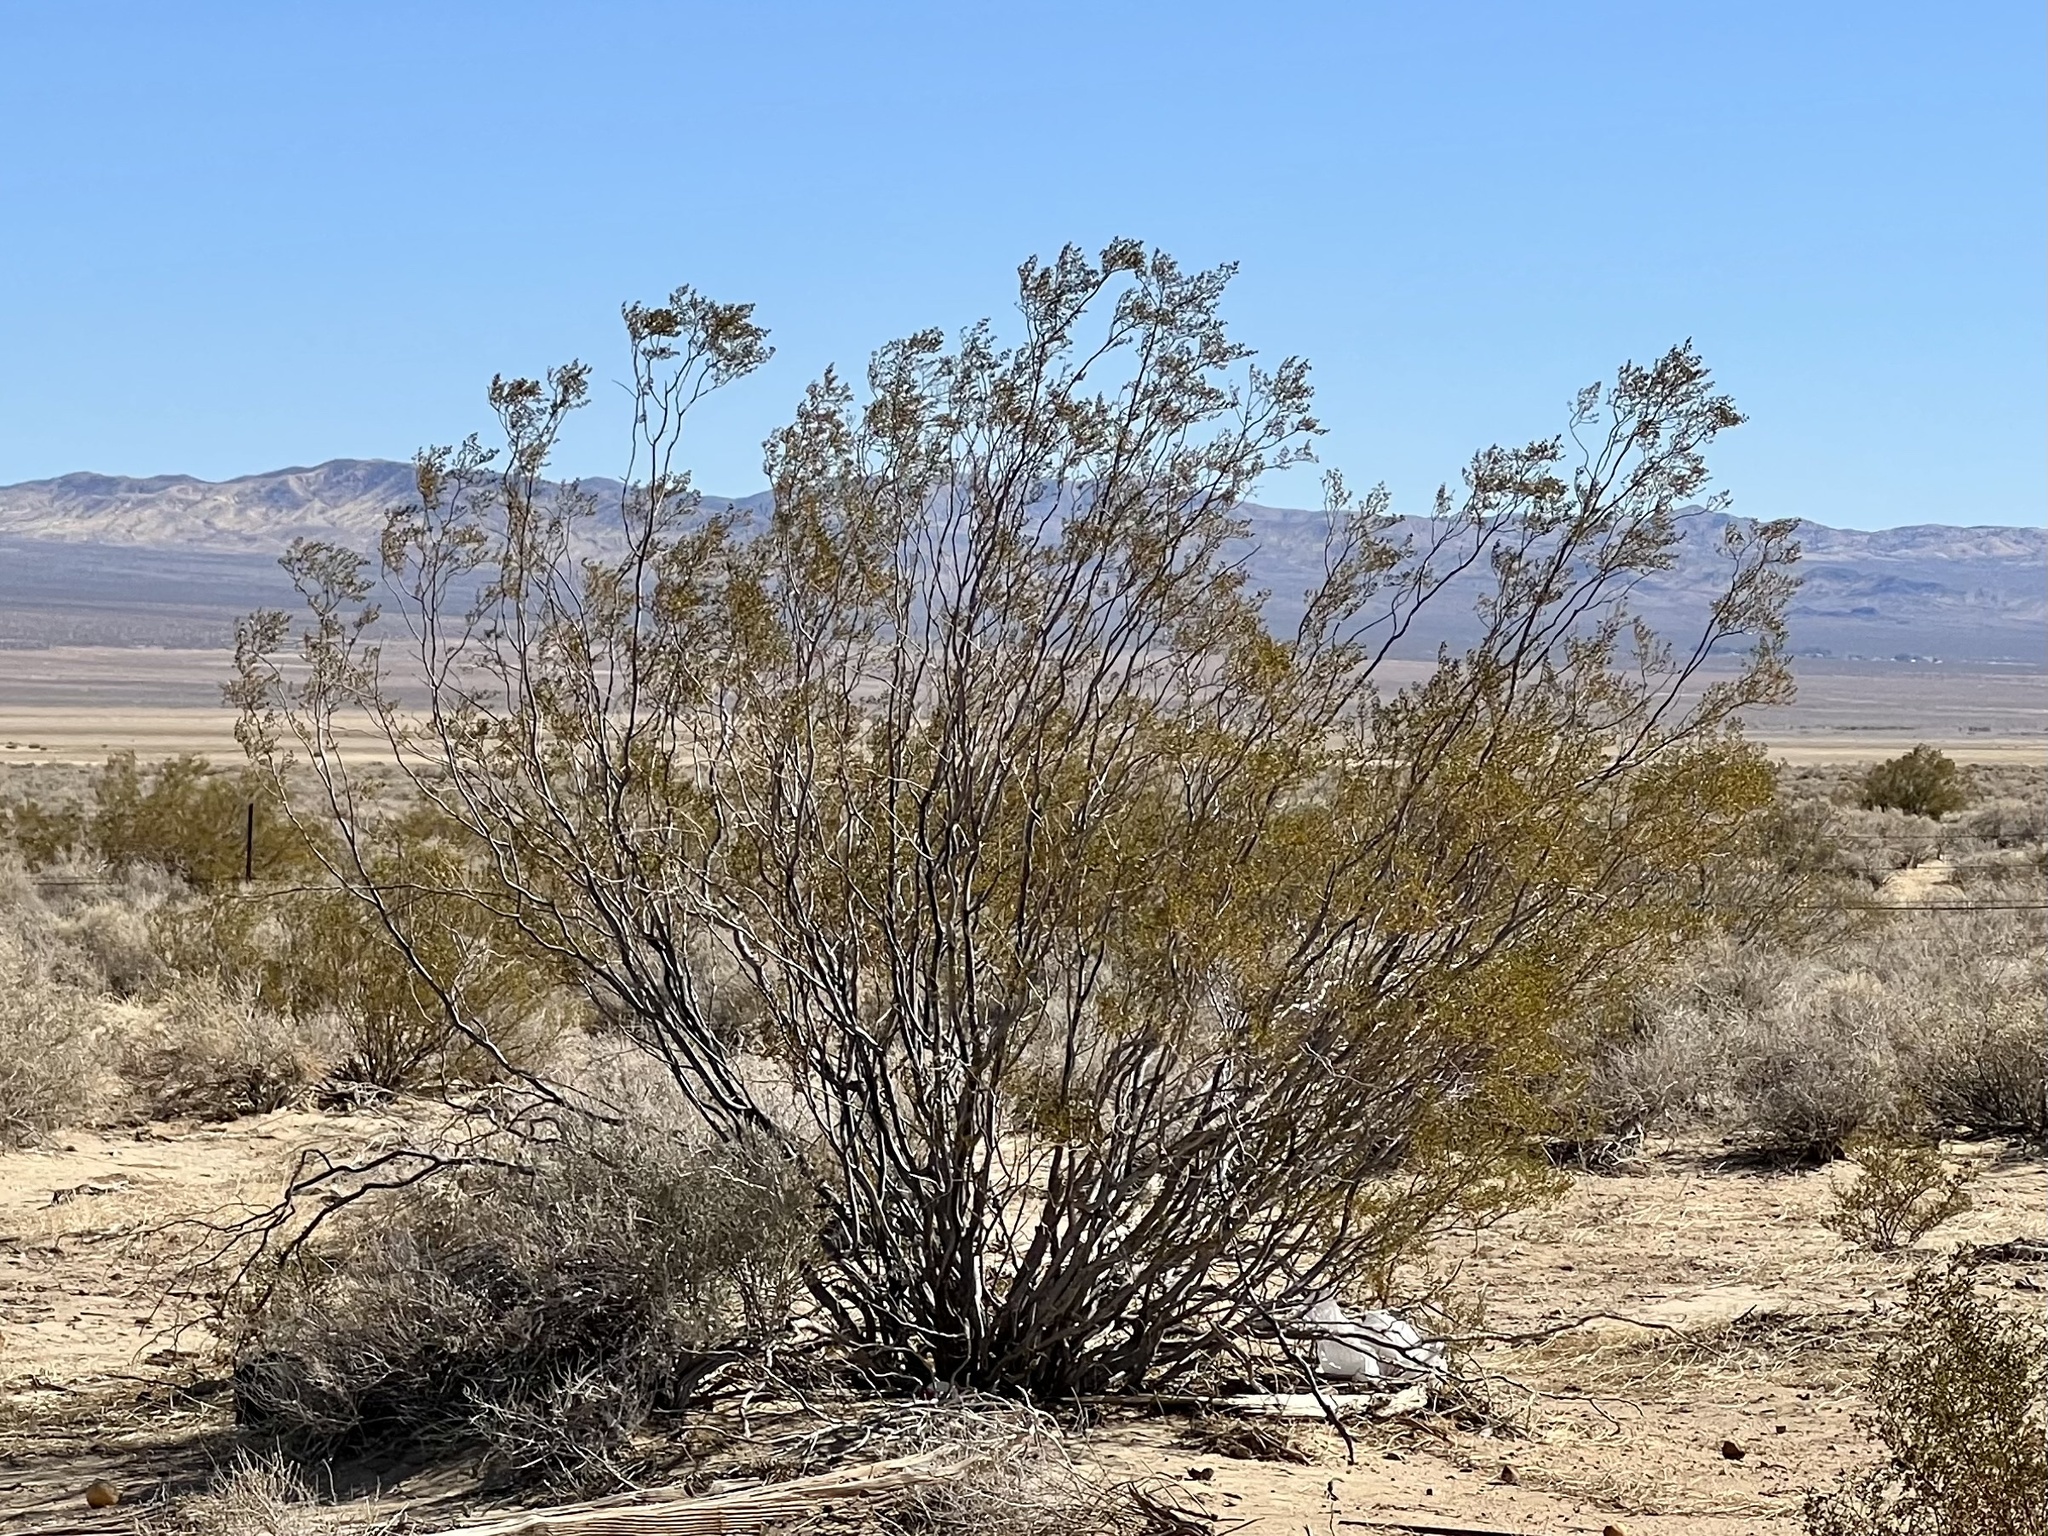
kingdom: Plantae
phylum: Tracheophyta
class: Magnoliopsida
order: Zygophyllales
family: Zygophyllaceae
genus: Larrea
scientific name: Larrea tridentata
